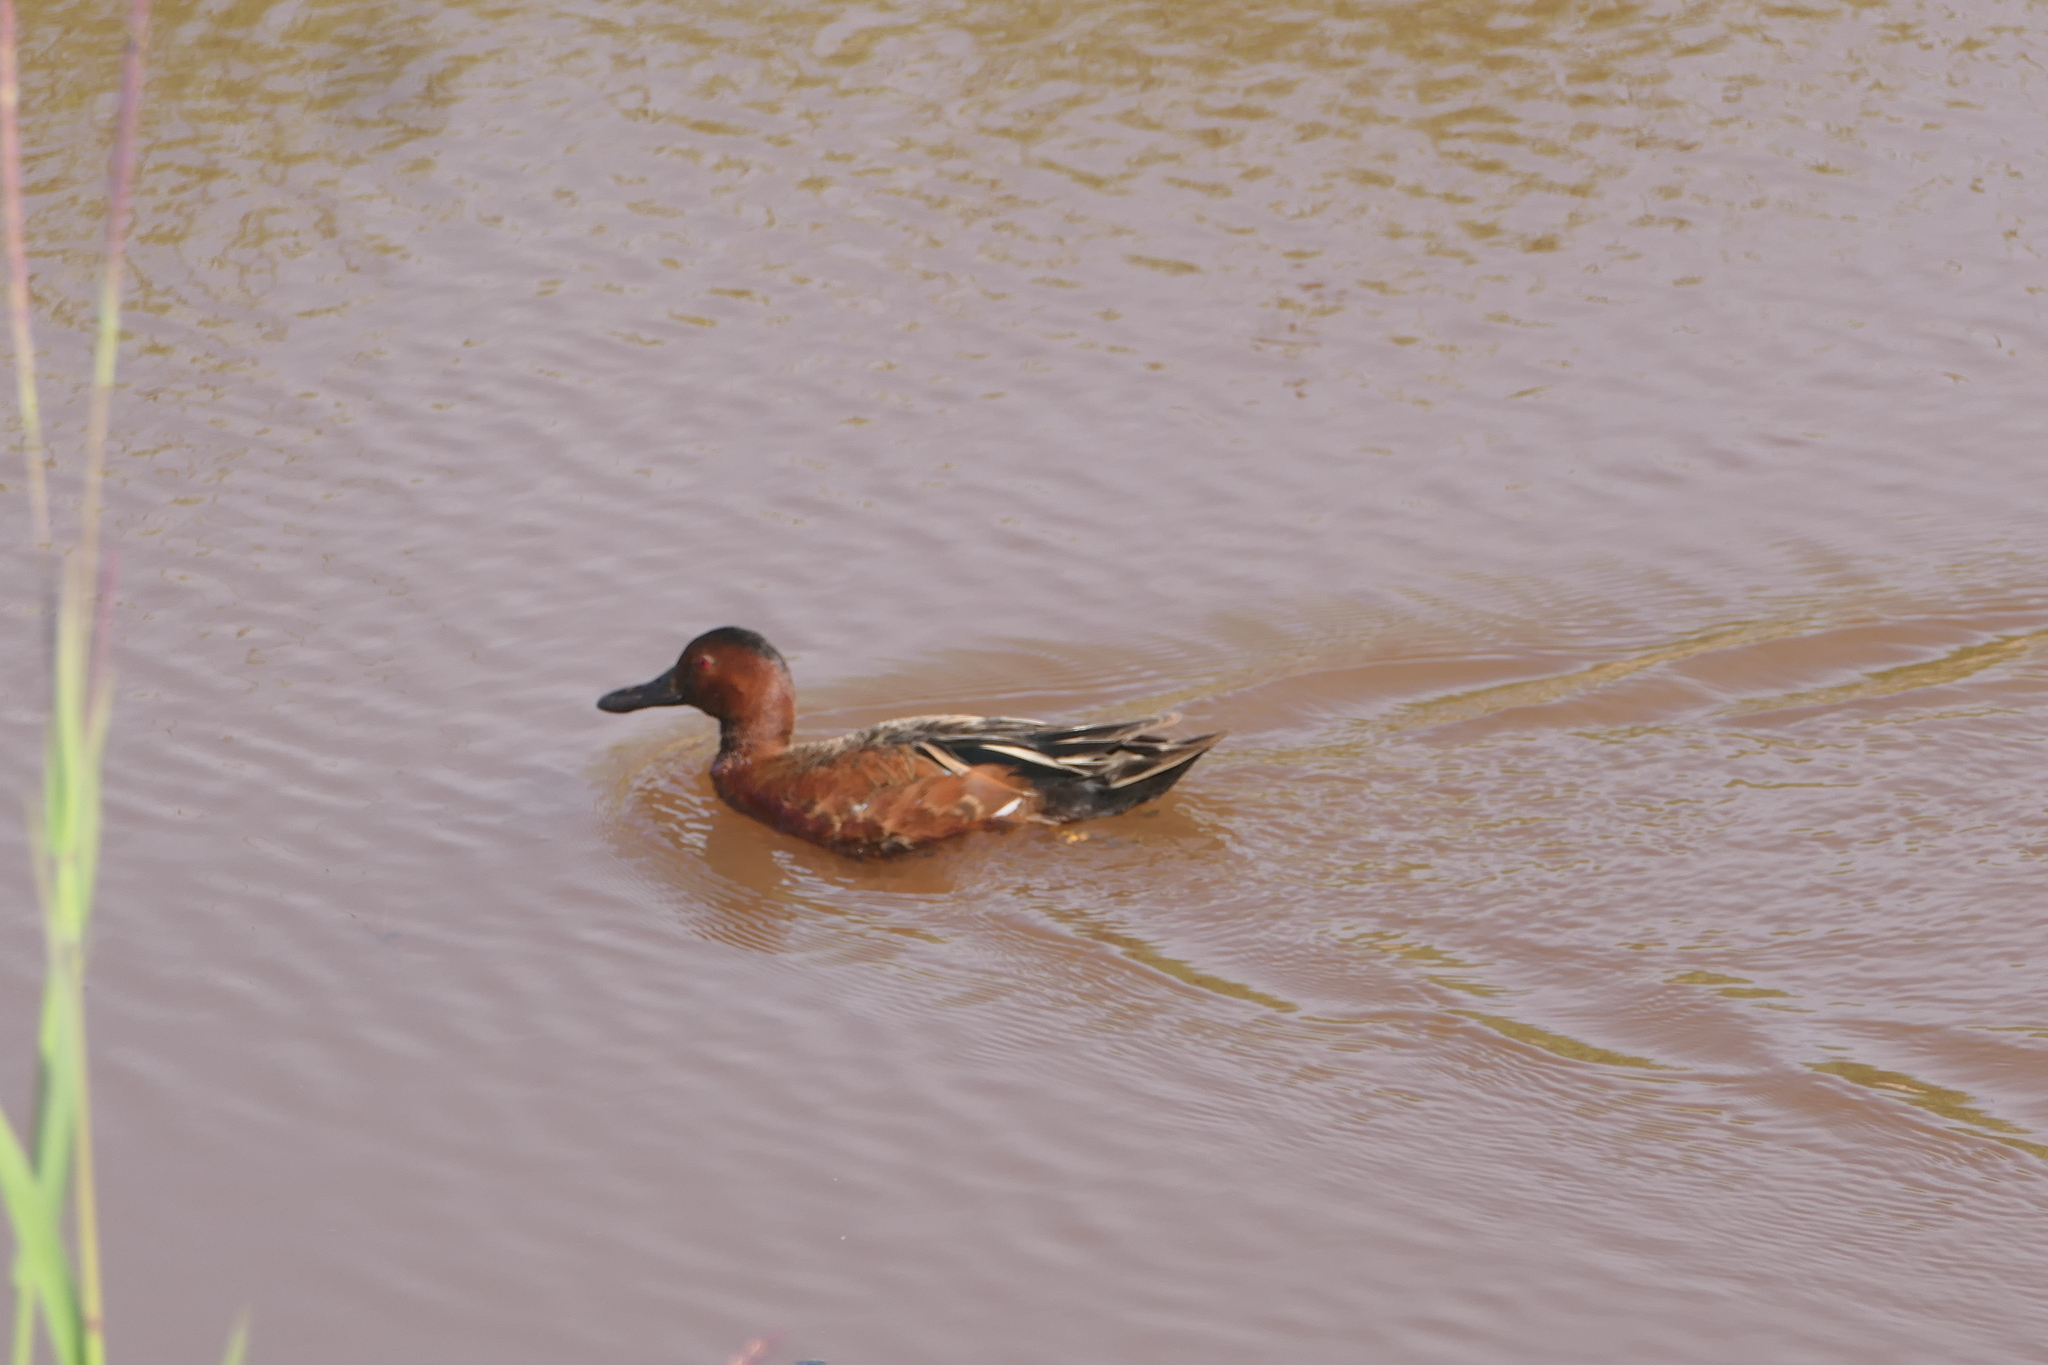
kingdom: Animalia
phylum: Chordata
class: Aves
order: Anseriformes
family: Anatidae
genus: Spatula
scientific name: Spatula cyanoptera
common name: Cinnamon teal
